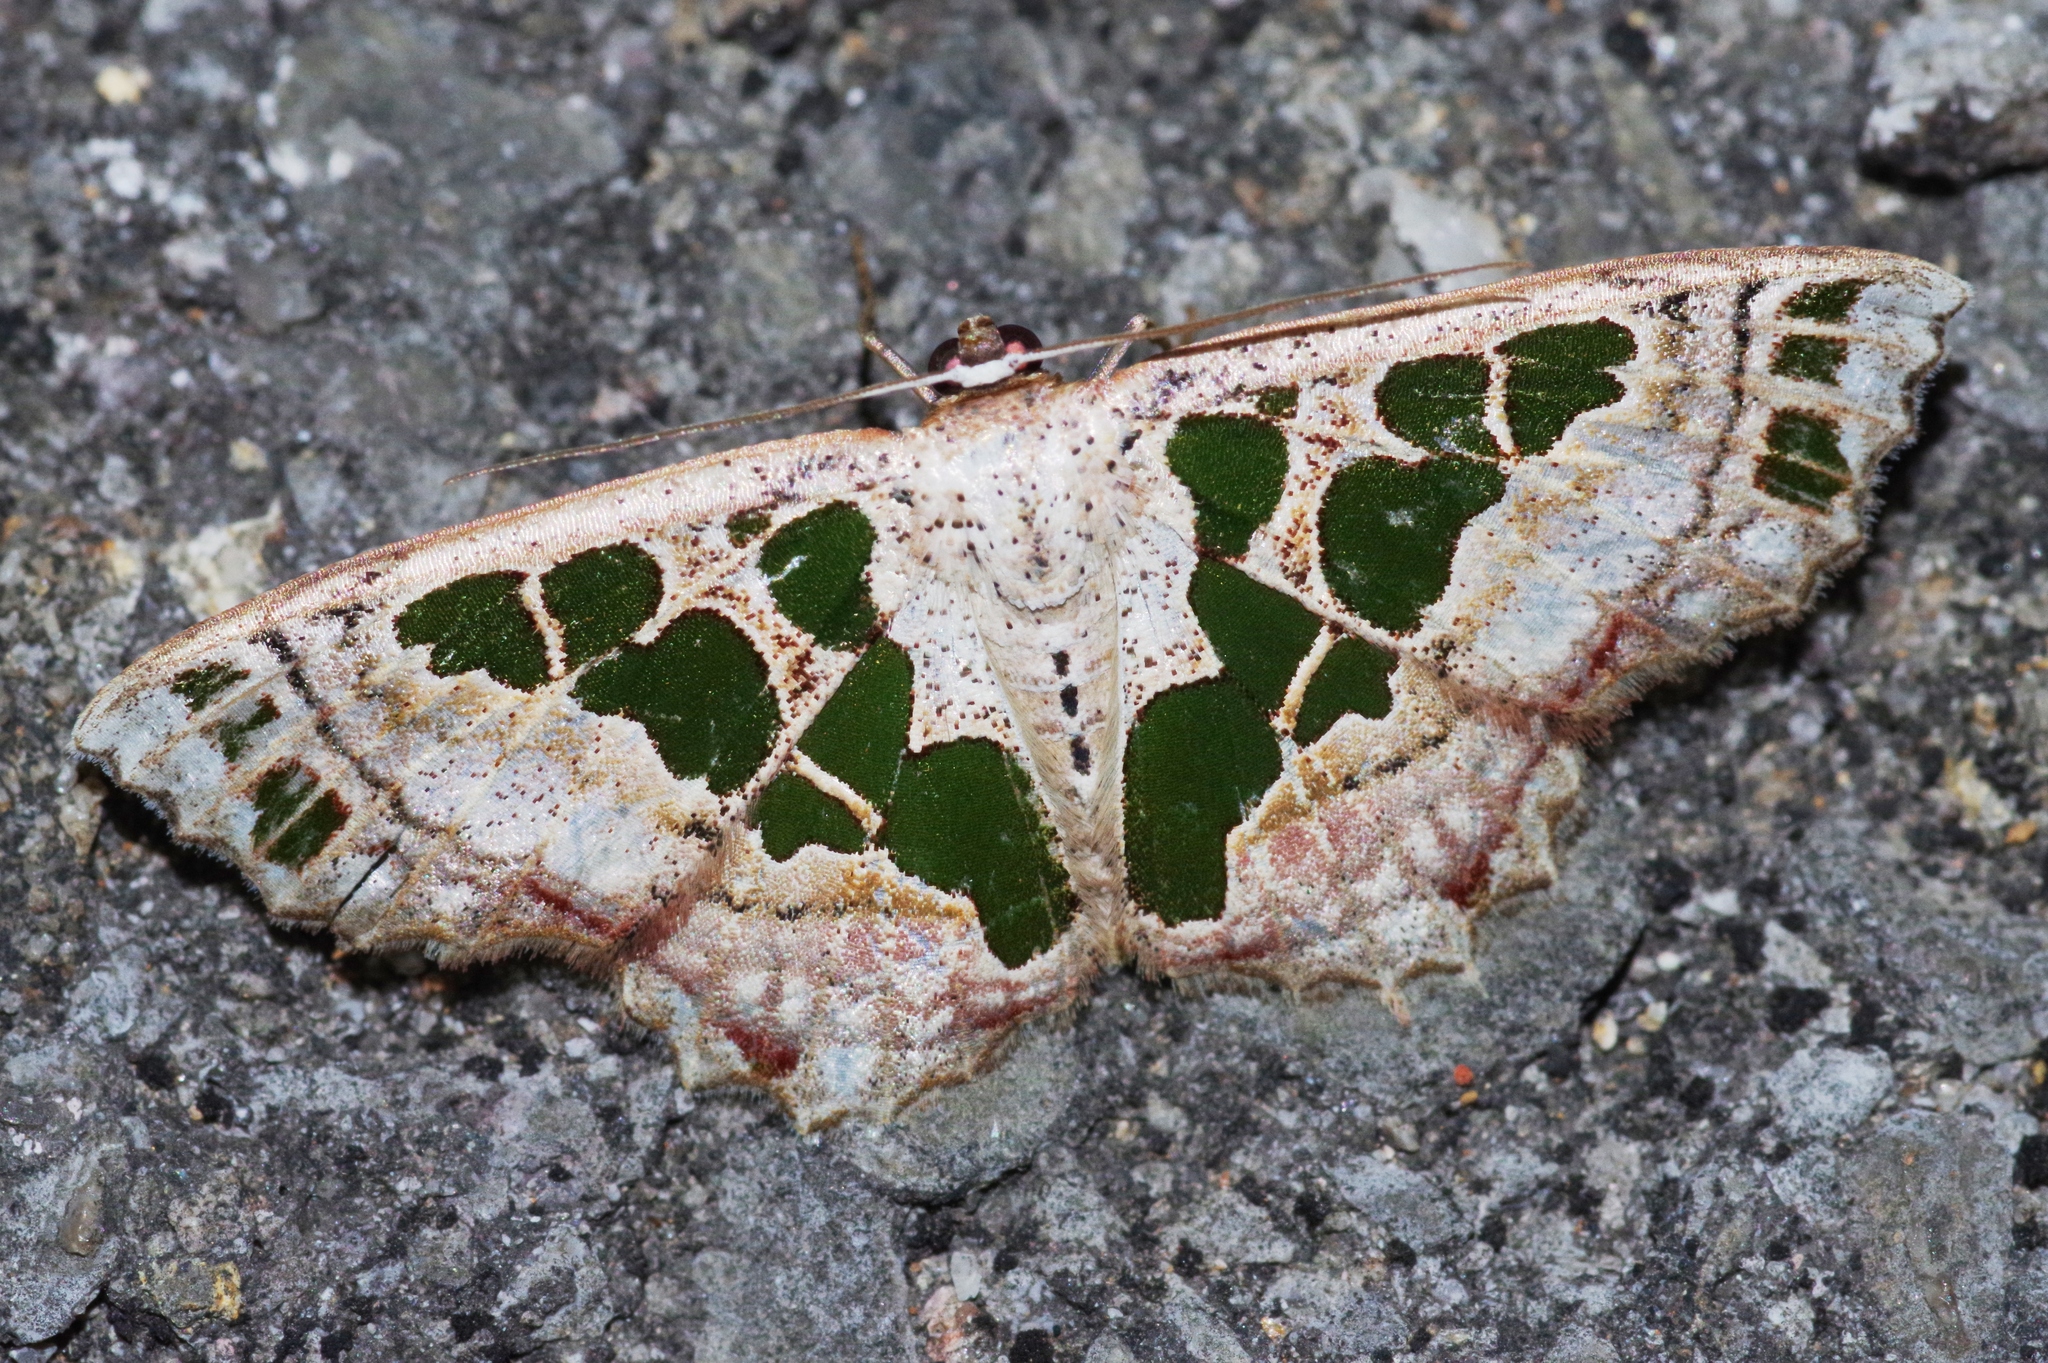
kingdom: Animalia
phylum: Arthropoda
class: Insecta
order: Lepidoptera
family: Geometridae
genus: Scopula
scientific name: Scopula divisaria
